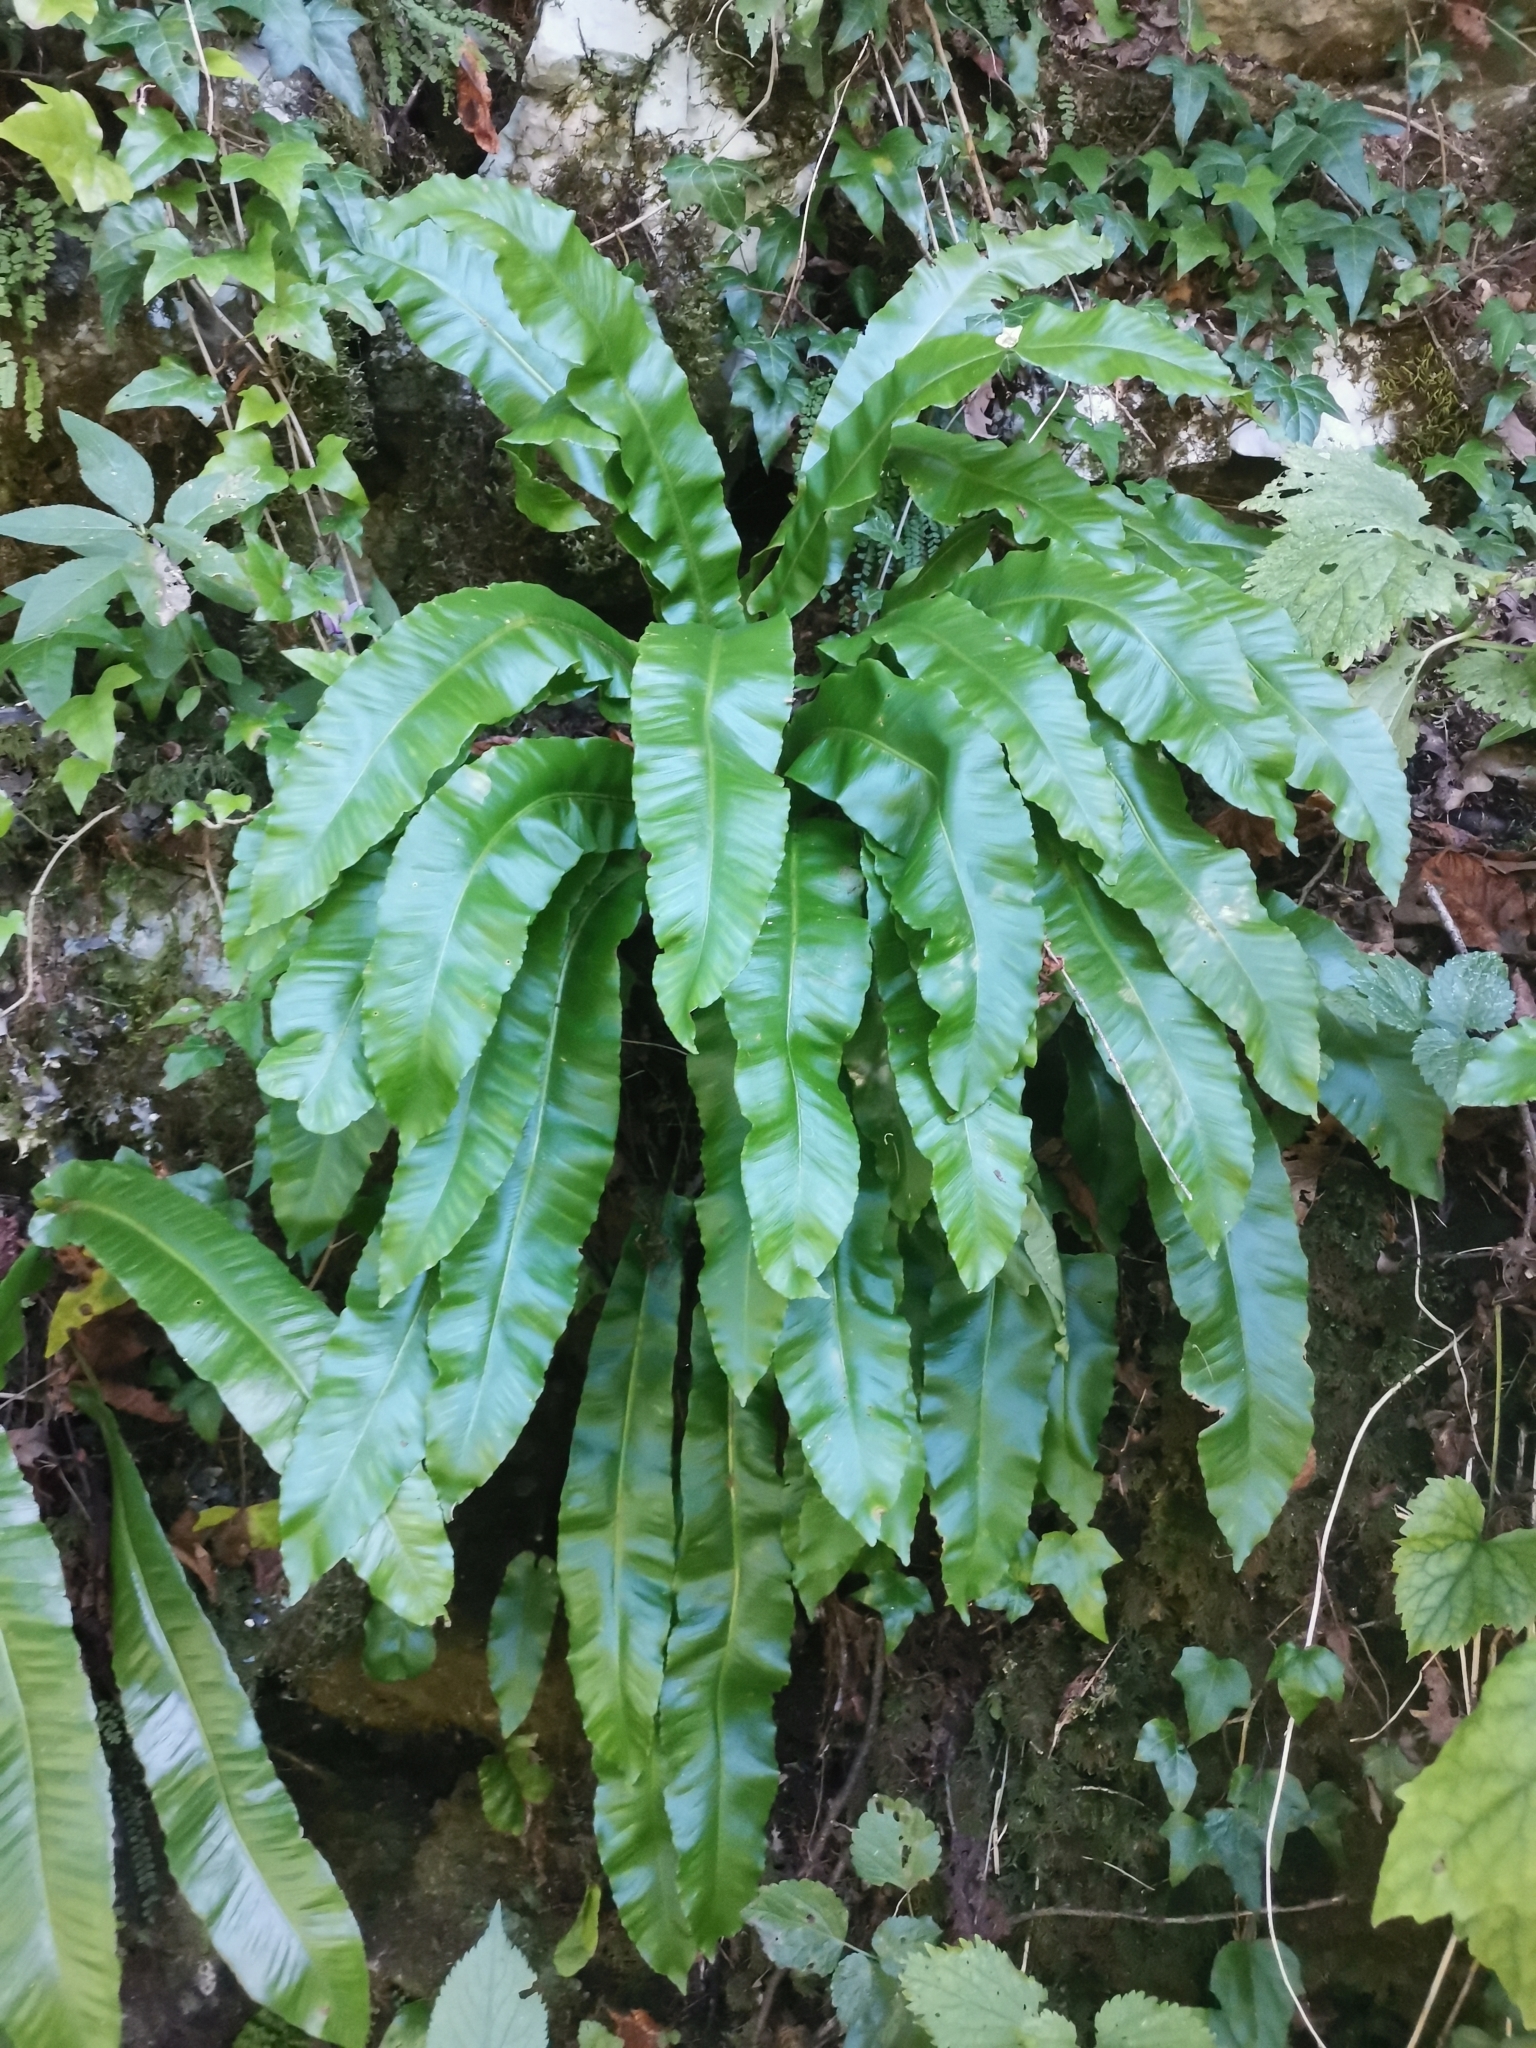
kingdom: Plantae
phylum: Tracheophyta
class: Polypodiopsida
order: Polypodiales
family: Aspleniaceae
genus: Asplenium
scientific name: Asplenium scolopendrium
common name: Hart's-tongue fern
